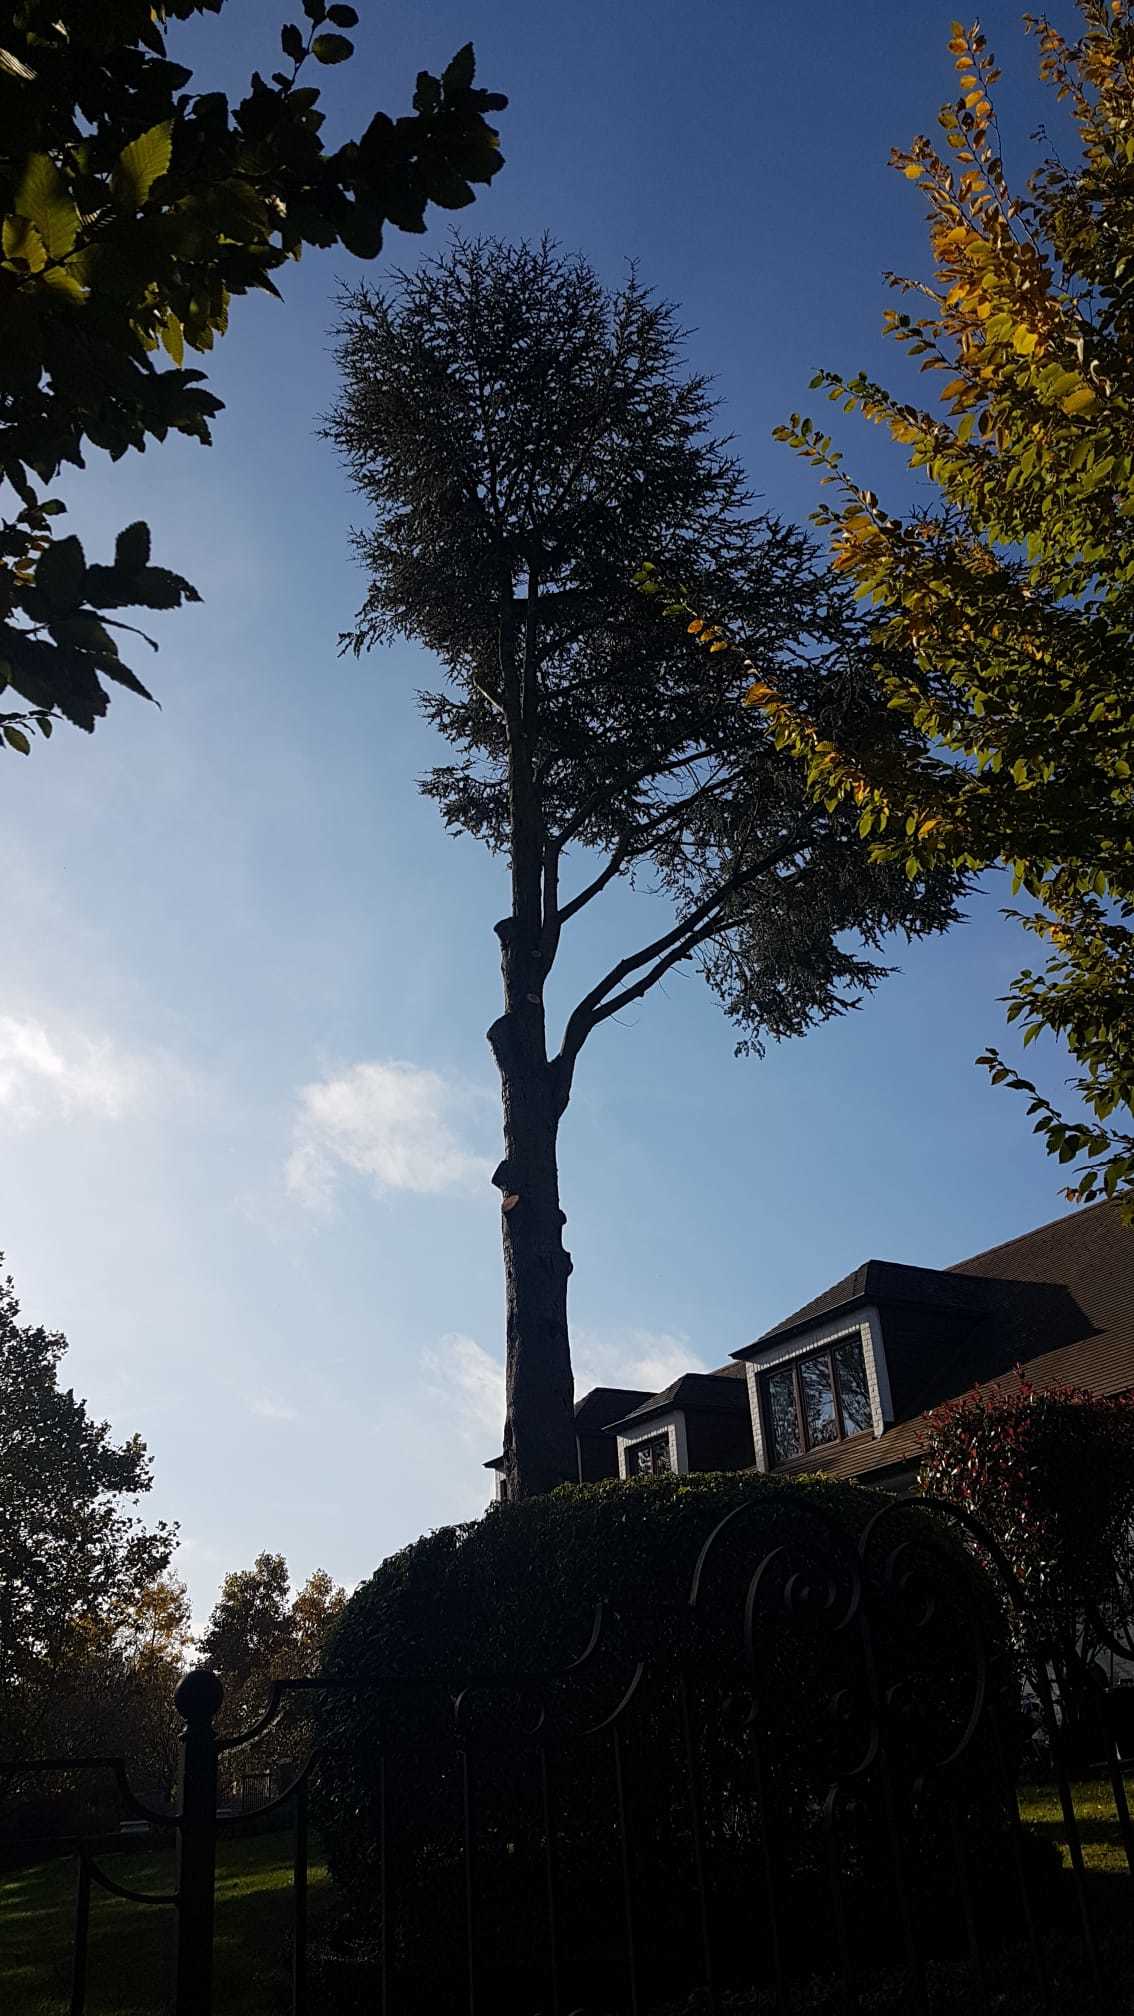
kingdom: Animalia
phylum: Arthropoda
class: Insecta
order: Hymenoptera
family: Vespidae
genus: Vespa
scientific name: Vespa velutina
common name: Asian hornet
